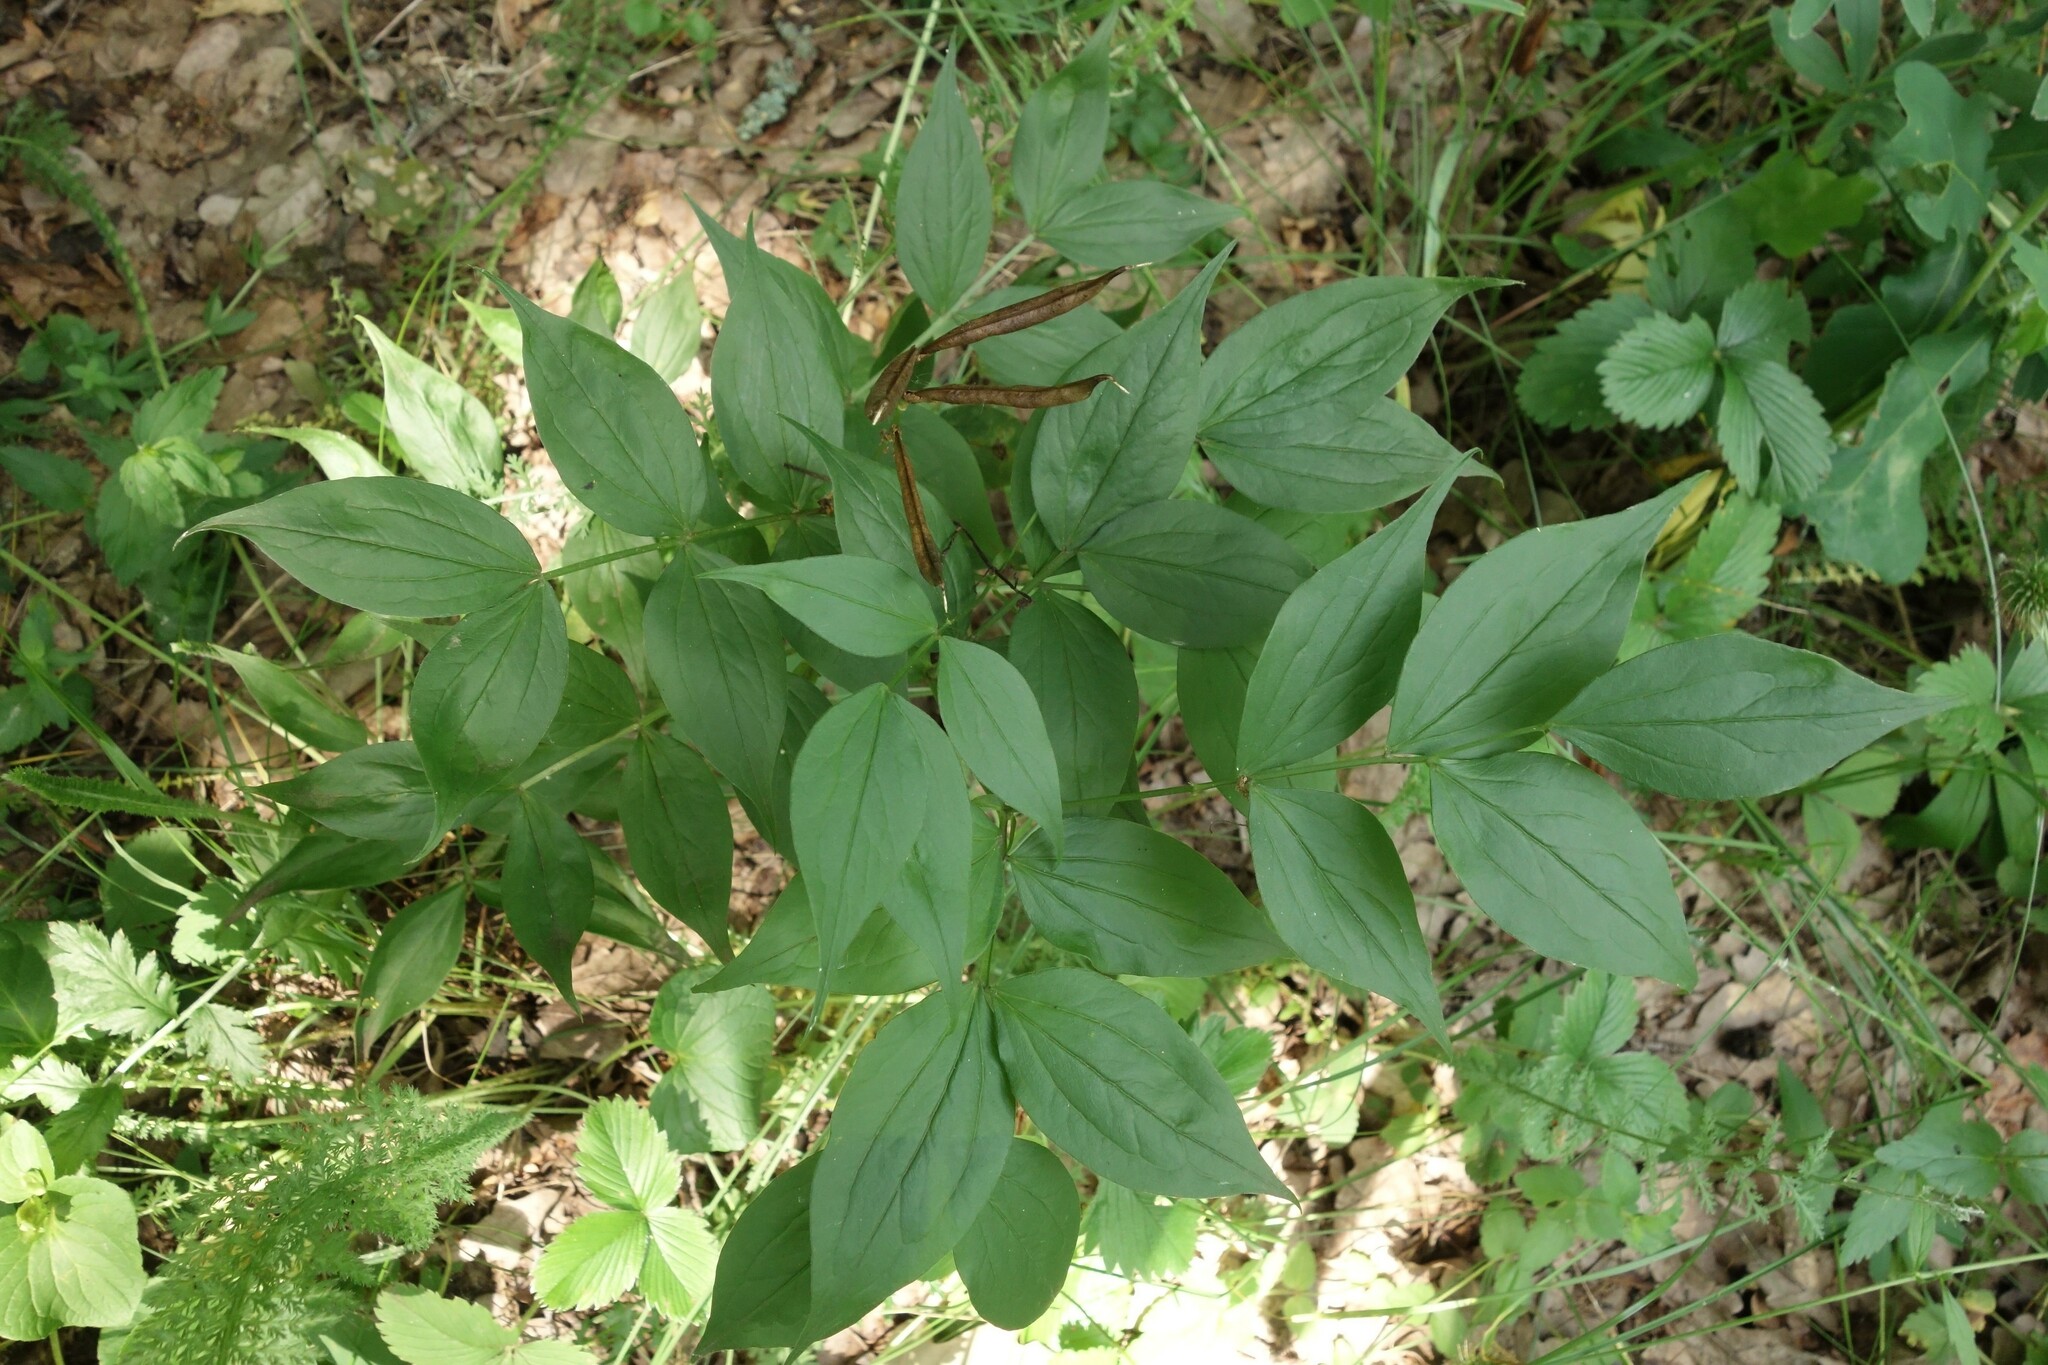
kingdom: Plantae
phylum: Tracheophyta
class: Magnoliopsida
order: Fabales
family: Fabaceae
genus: Lathyrus
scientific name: Lathyrus vernus
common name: Spring pea
